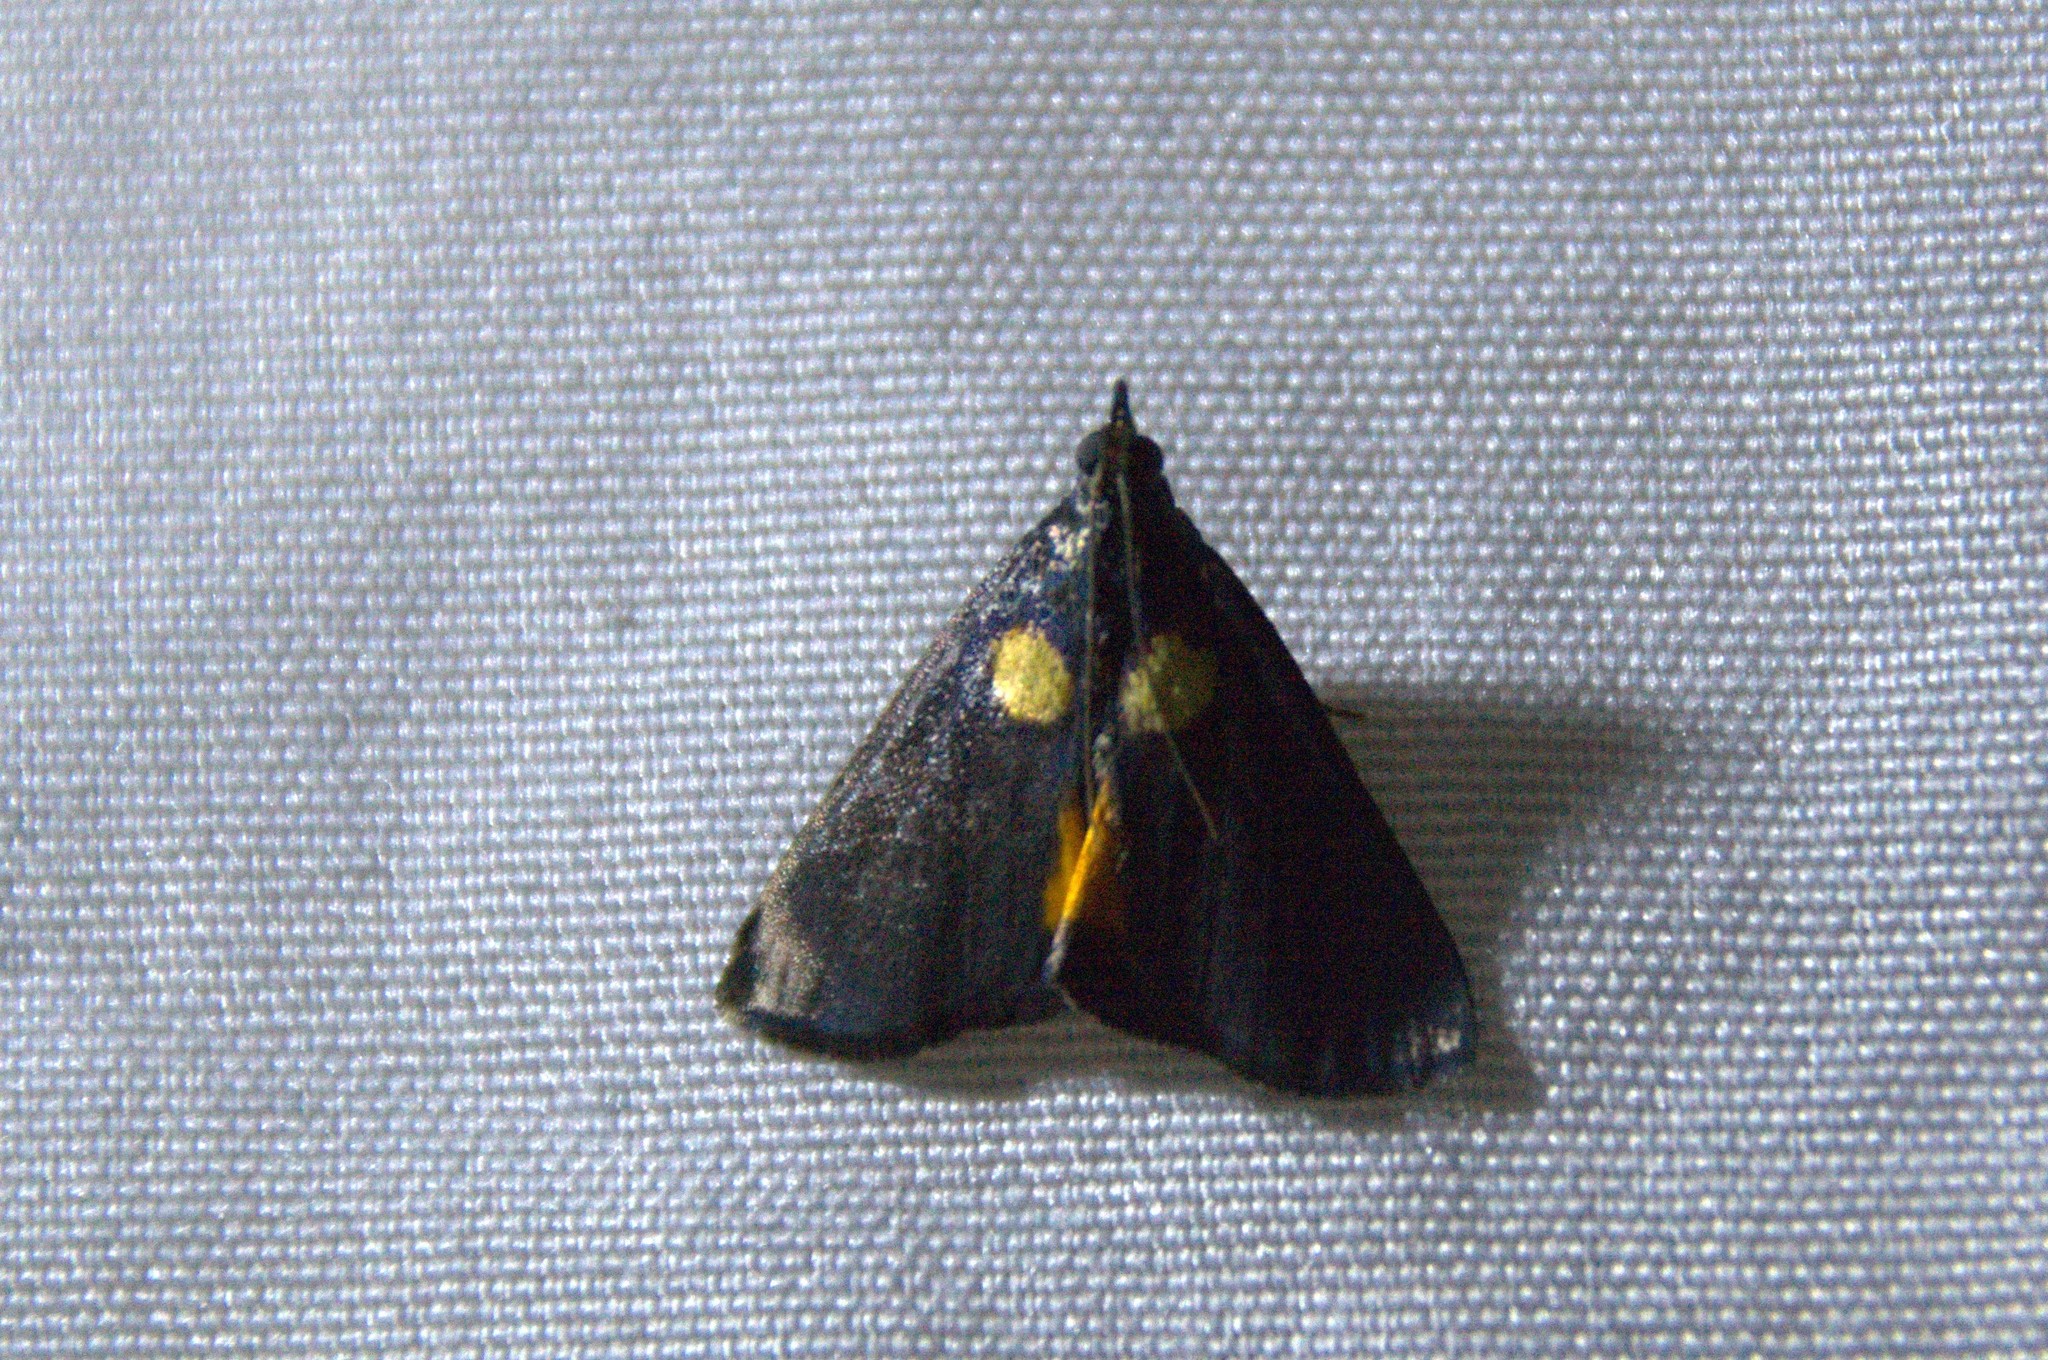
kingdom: Animalia
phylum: Arthropoda
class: Insecta
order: Lepidoptera
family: Pyralidae
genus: Semnia
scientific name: Semnia auritalis
